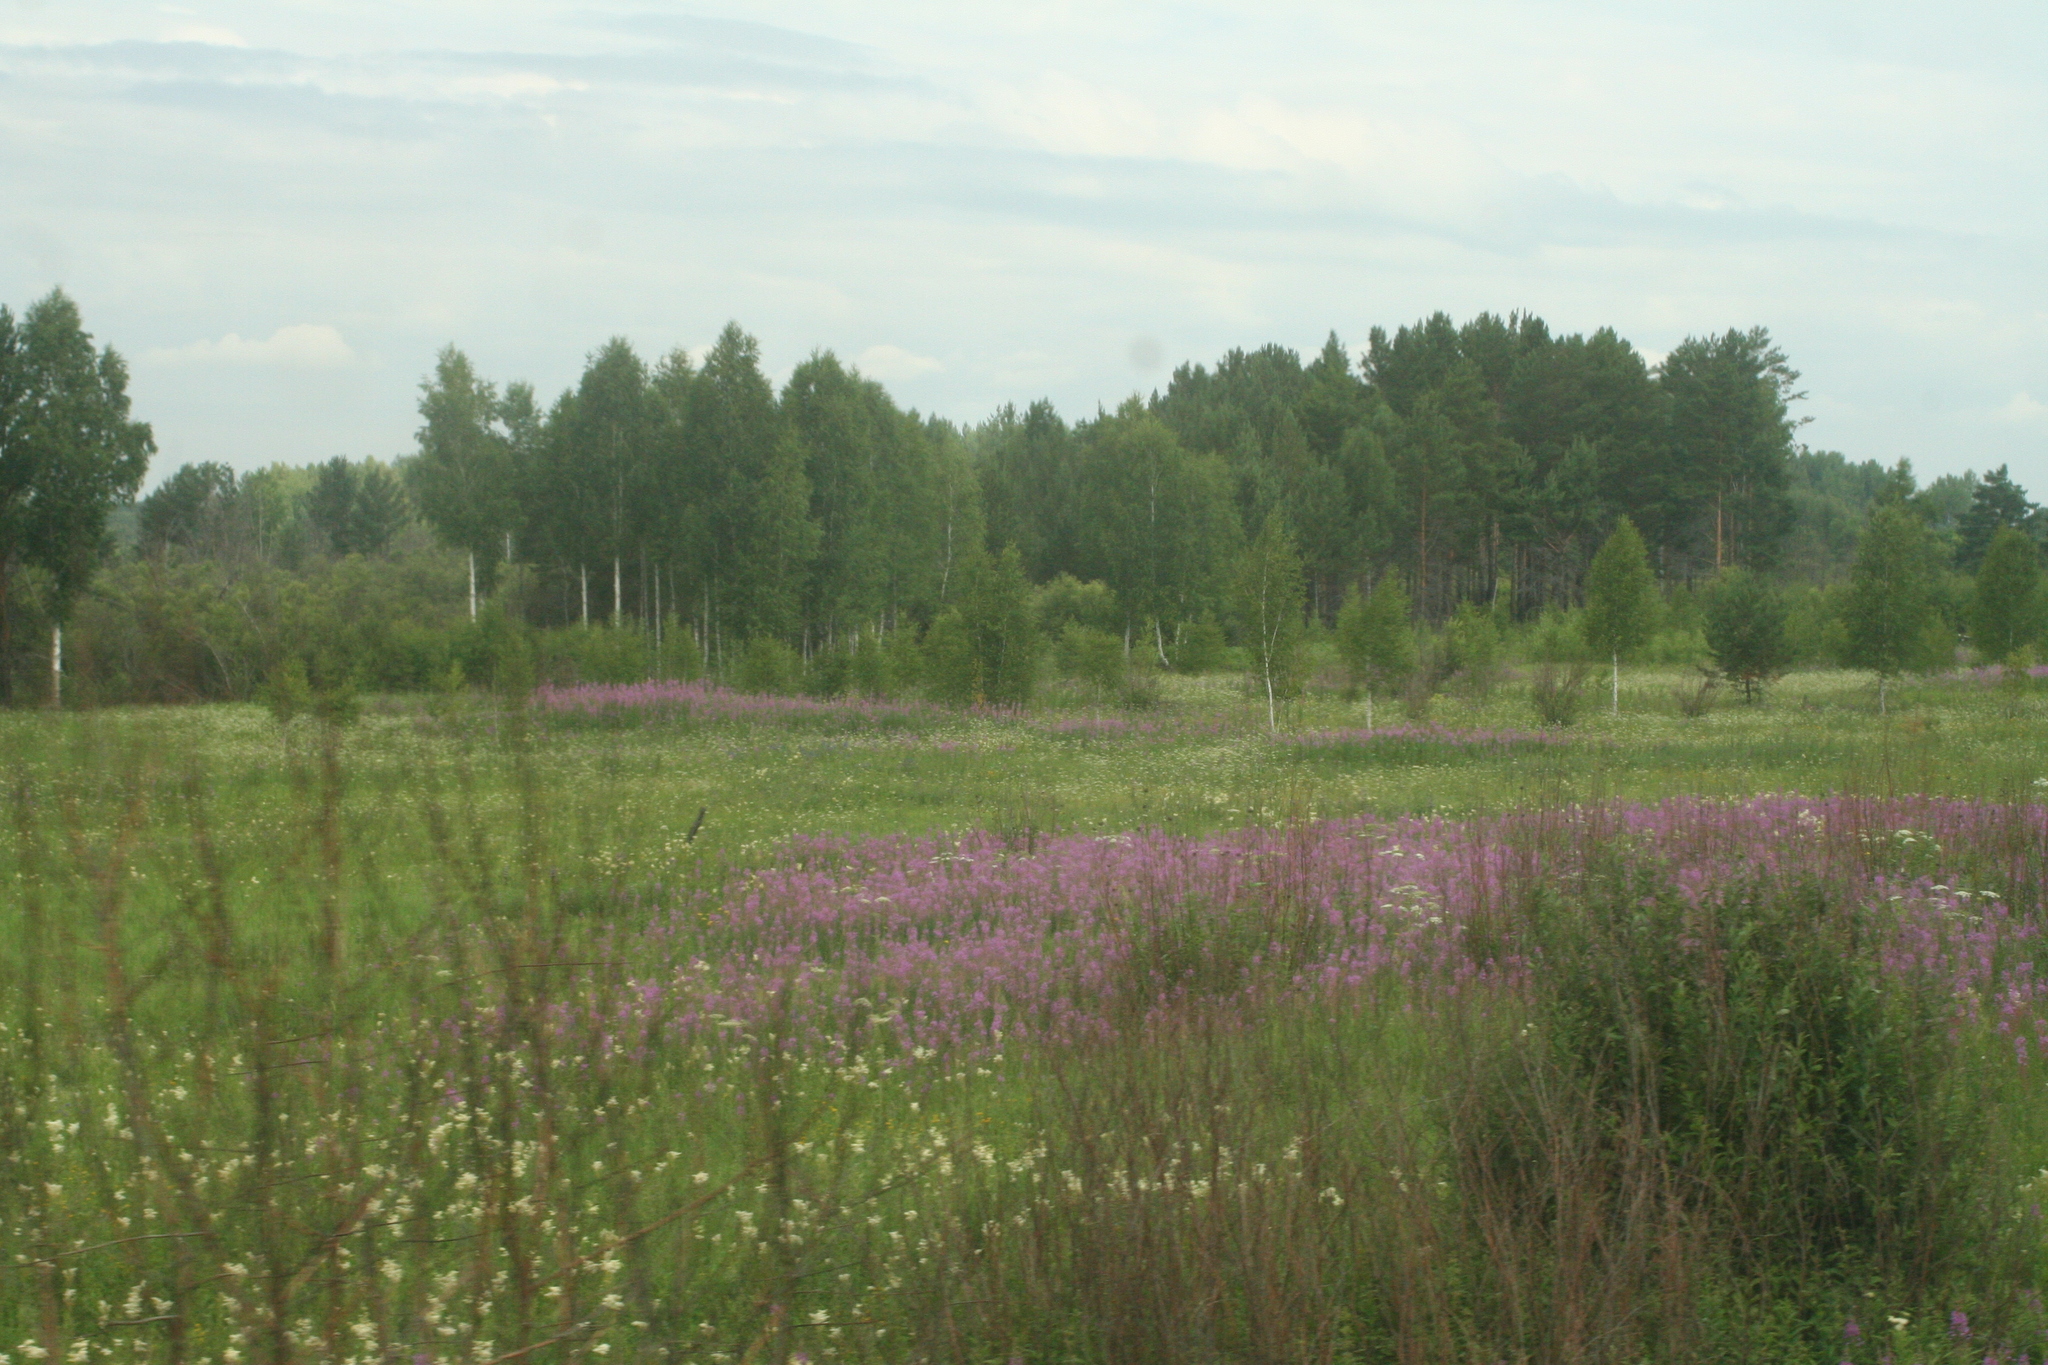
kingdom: Plantae
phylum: Tracheophyta
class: Magnoliopsida
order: Myrtales
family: Onagraceae
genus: Chamaenerion
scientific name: Chamaenerion angustifolium
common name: Fireweed
